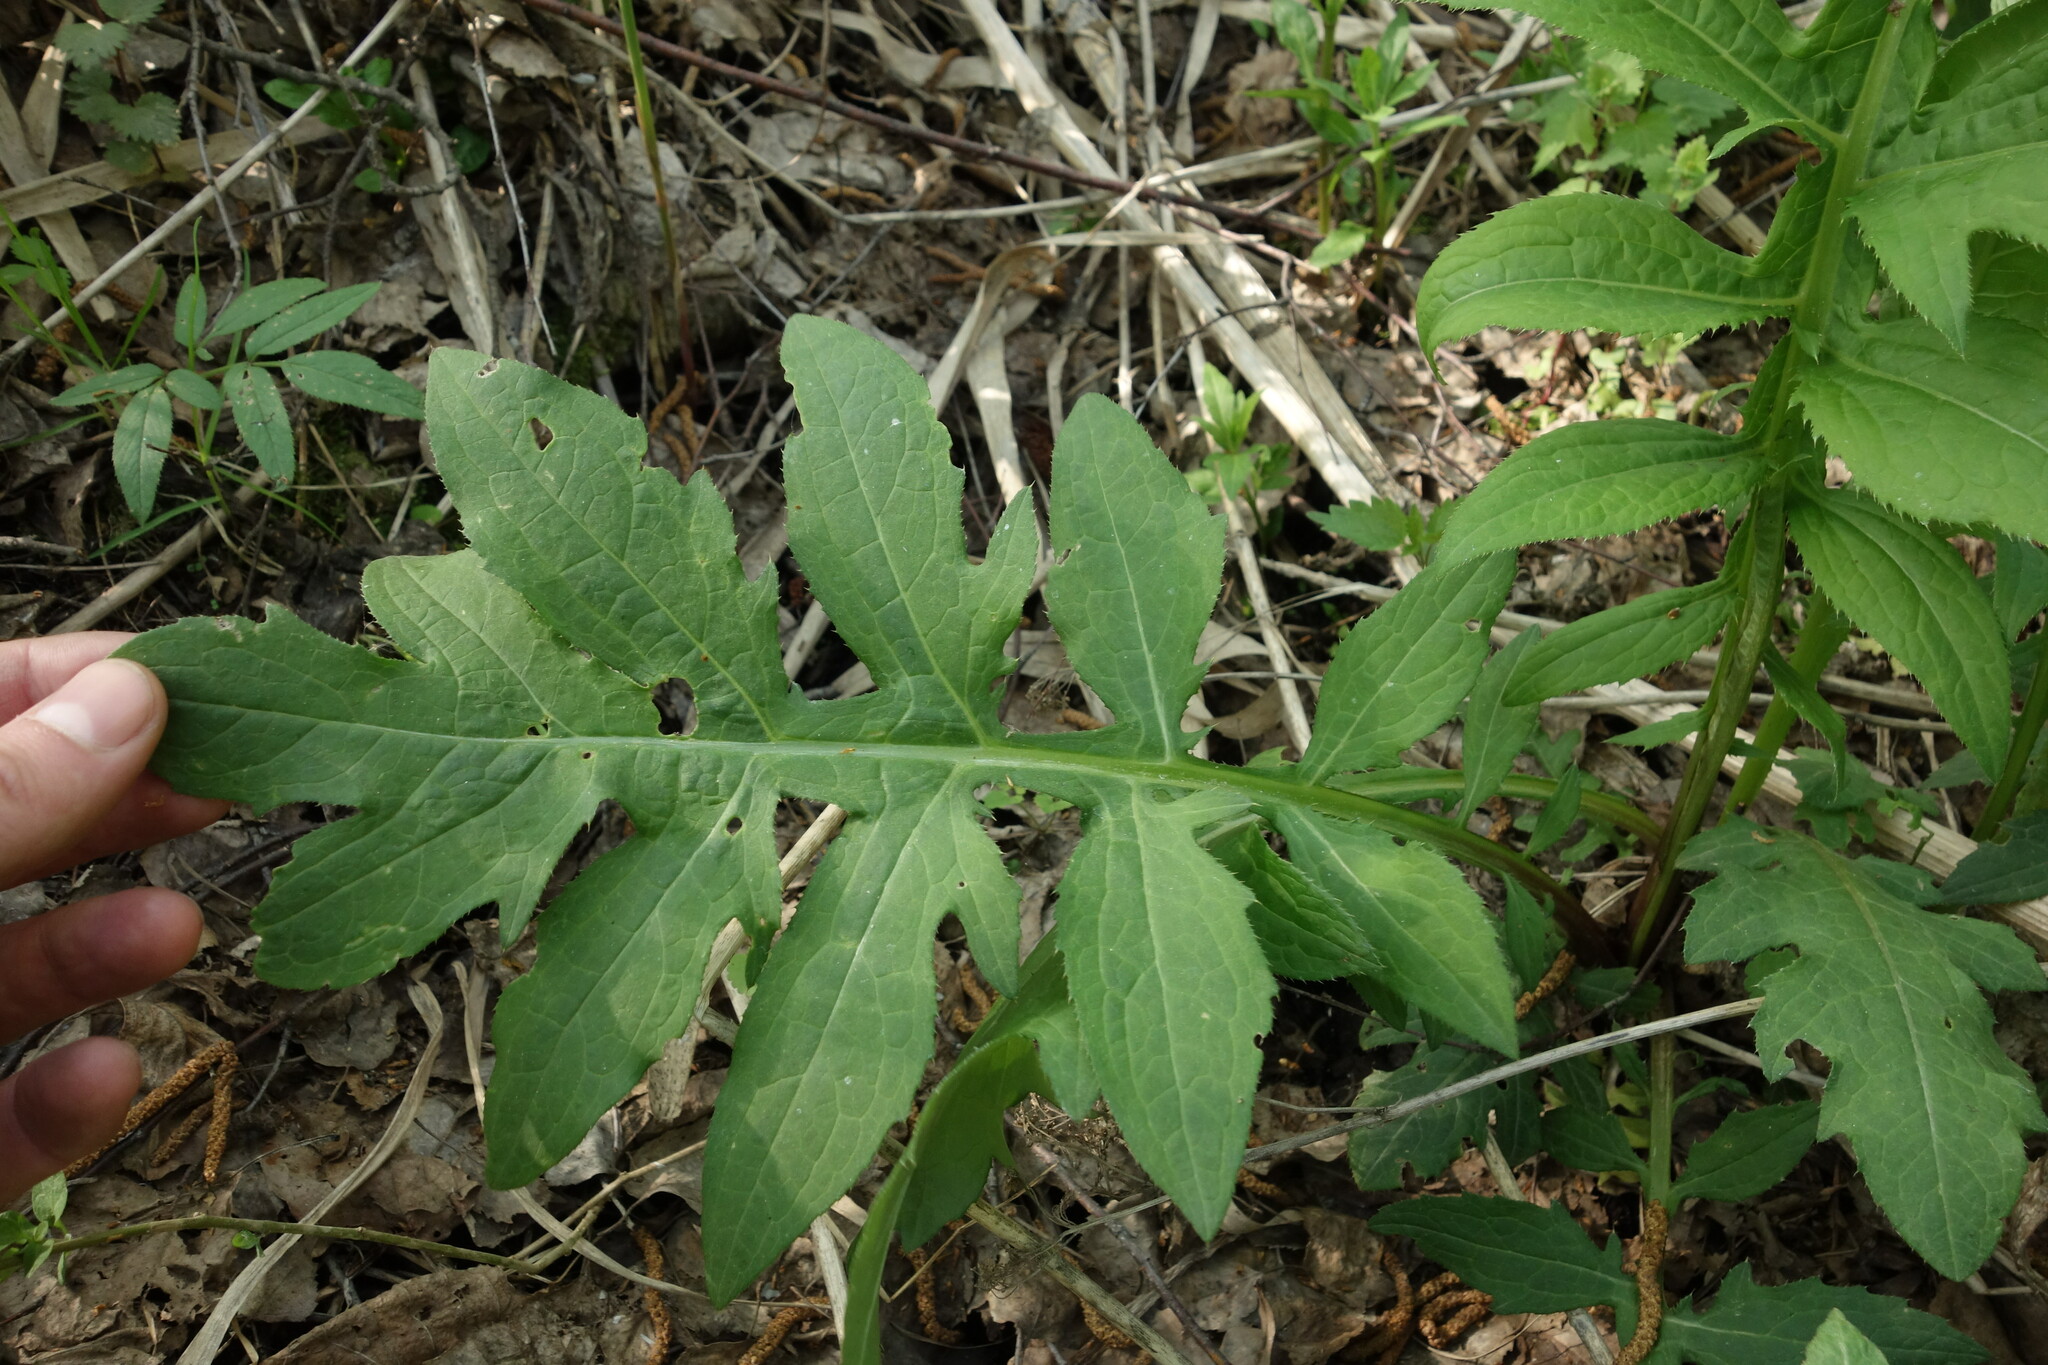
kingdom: Plantae
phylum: Tracheophyta
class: Magnoliopsida
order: Asterales
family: Asteraceae
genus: Cirsium
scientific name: Cirsium oleraceum
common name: Cabbage thistle
